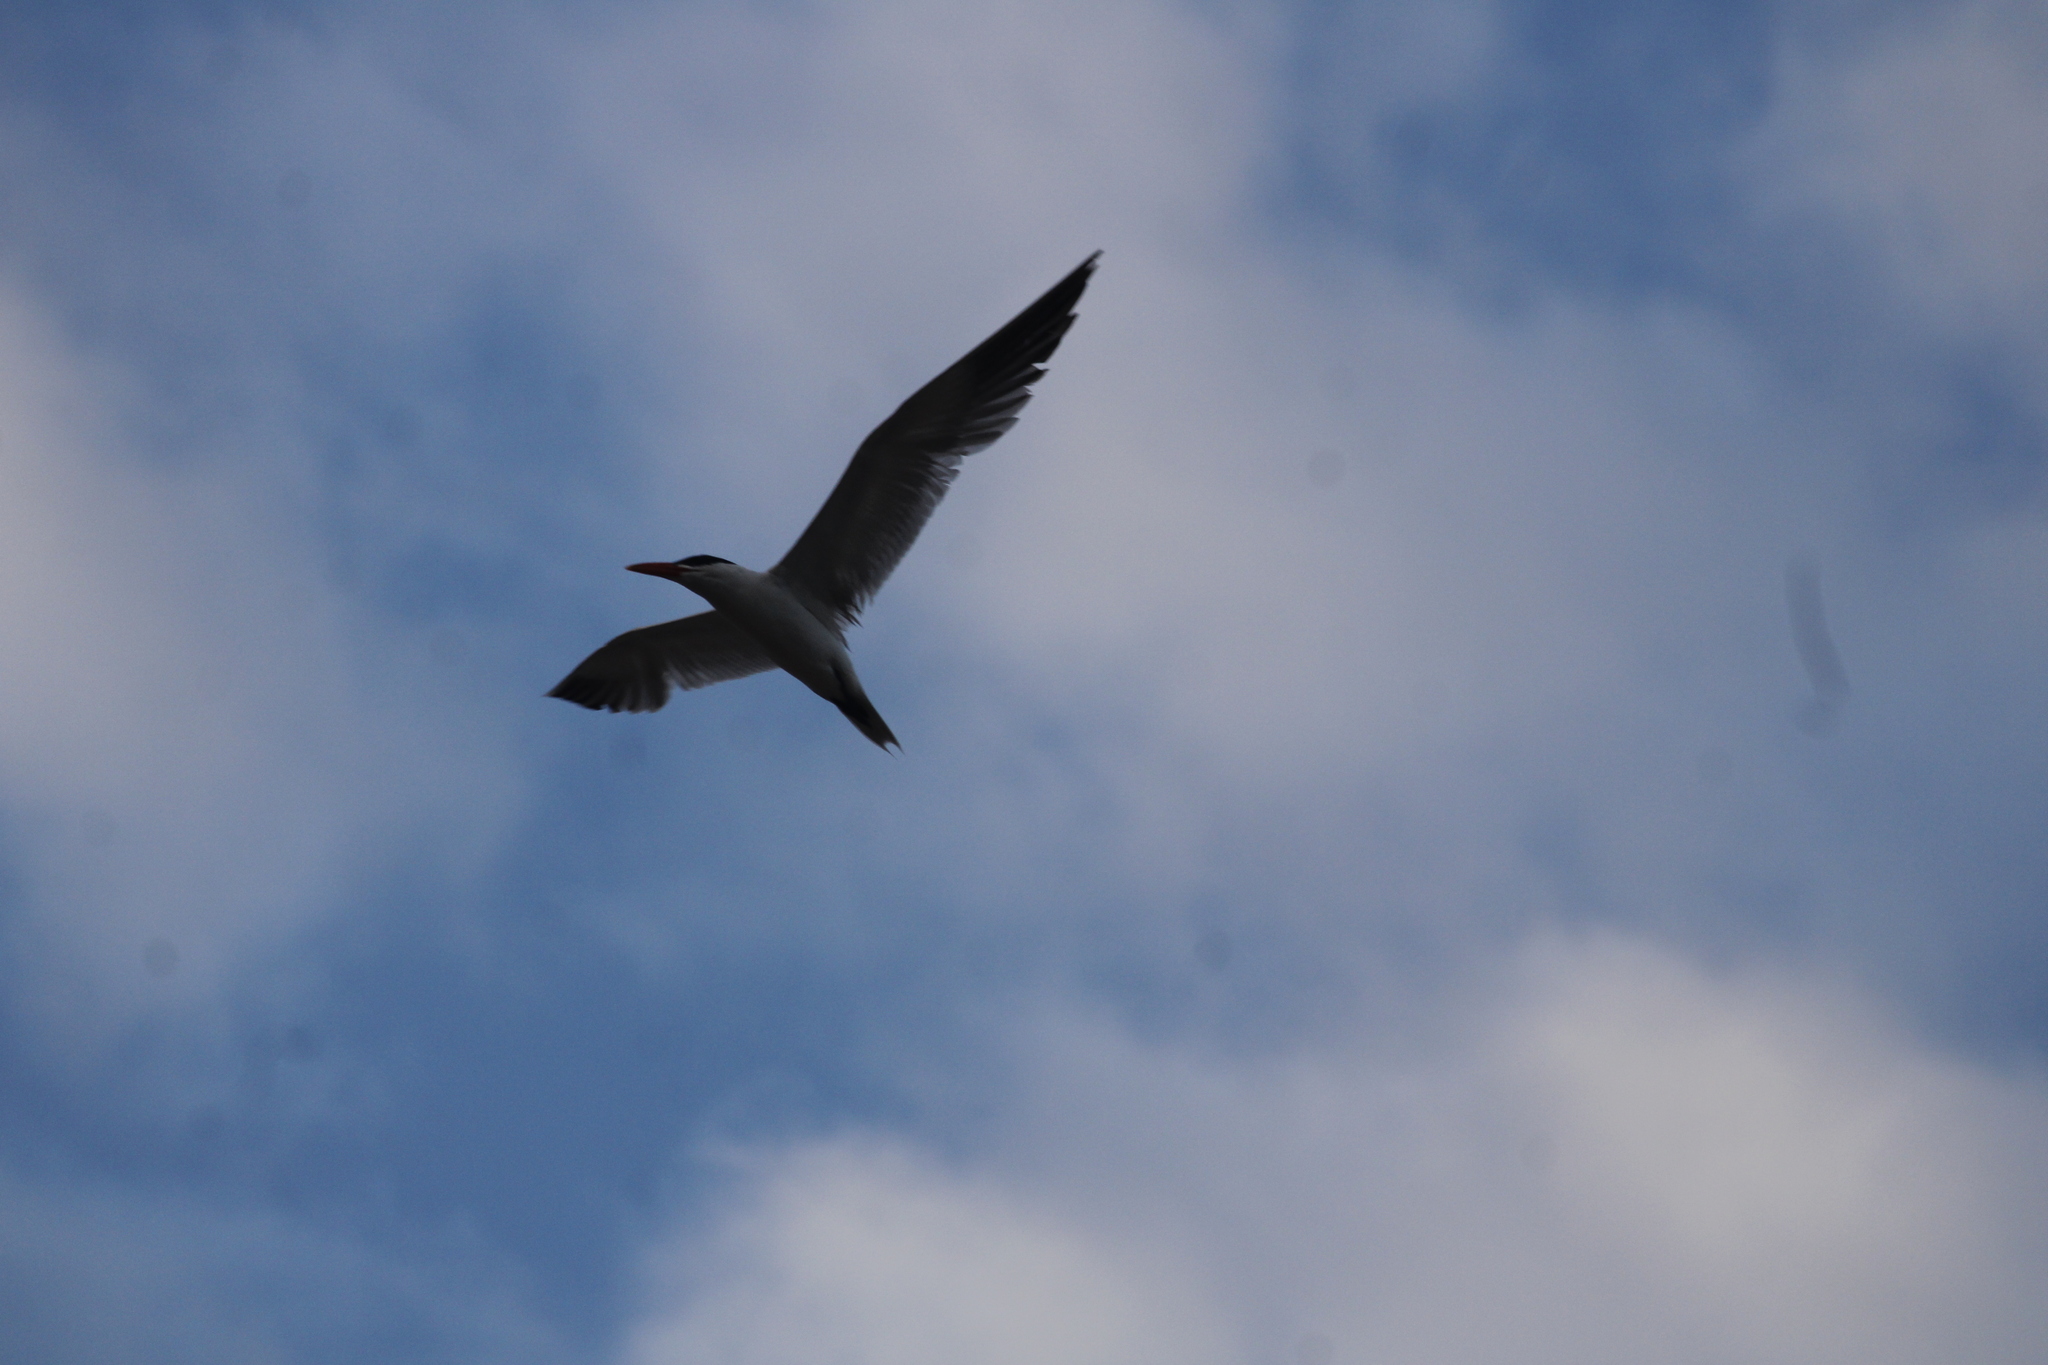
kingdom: Animalia
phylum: Chordata
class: Aves
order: Charadriiformes
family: Laridae
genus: Hydroprogne
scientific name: Hydroprogne caspia
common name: Caspian tern
